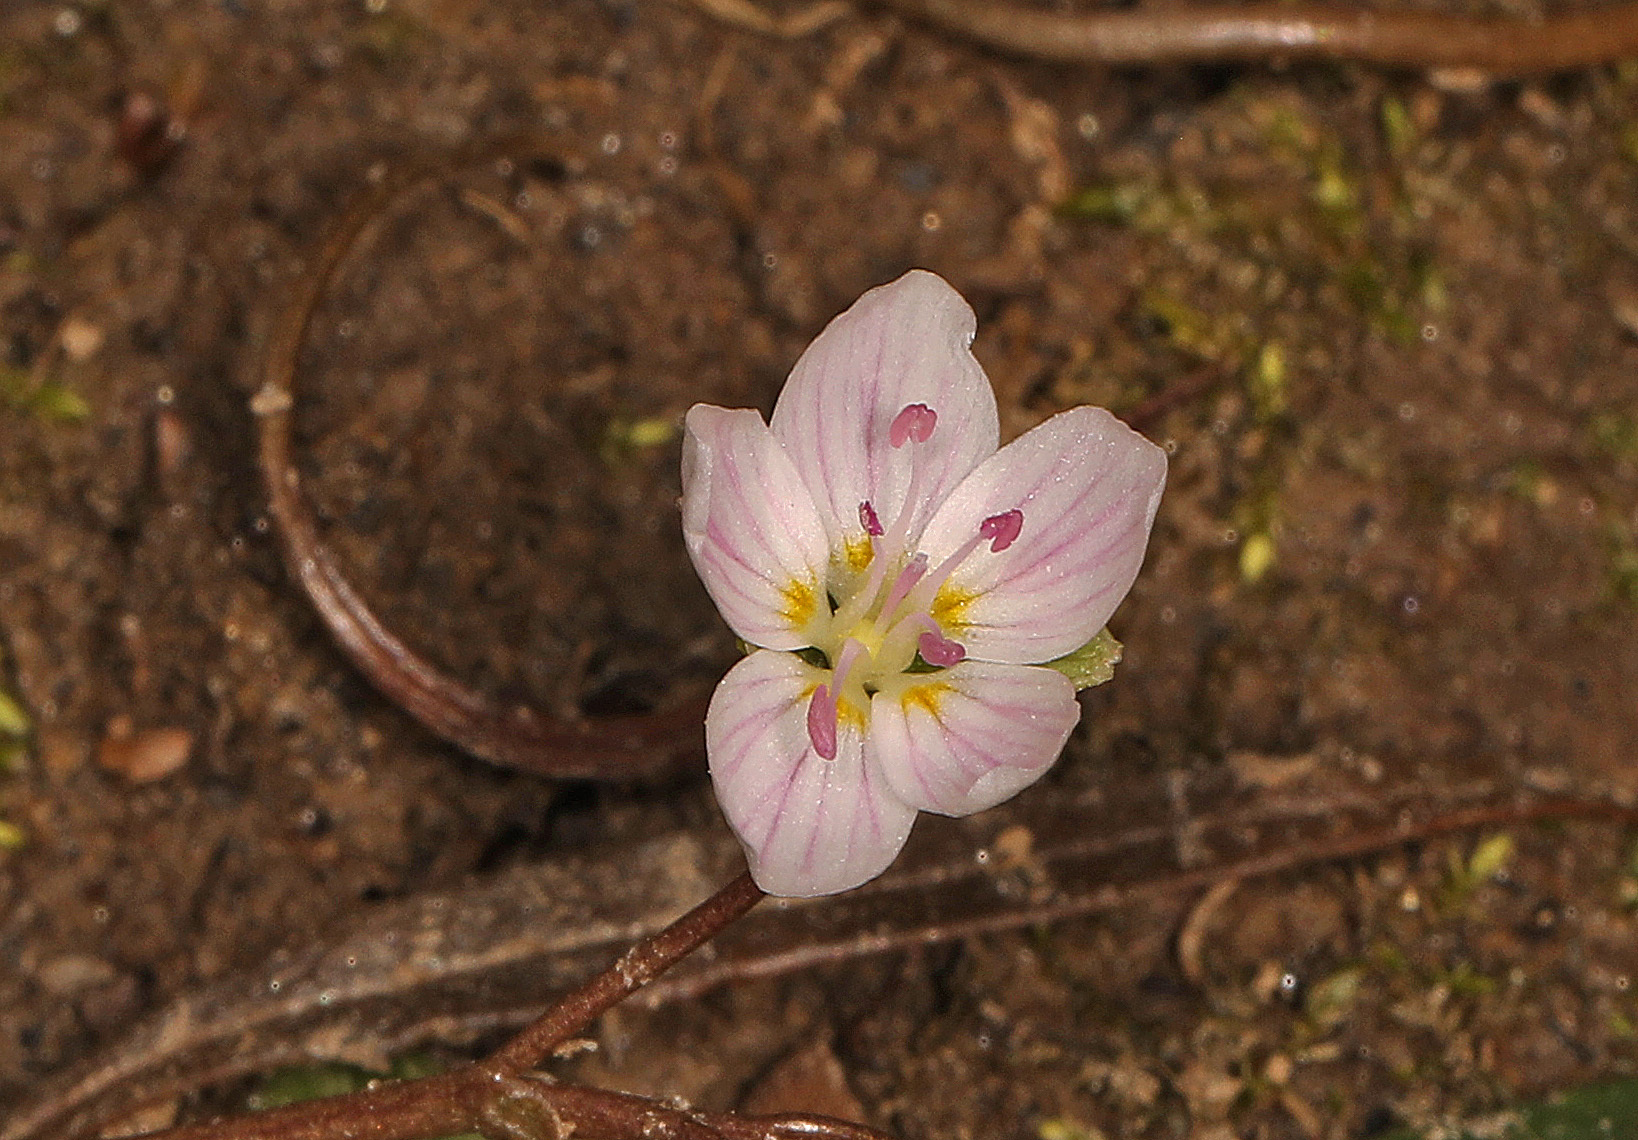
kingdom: Plantae
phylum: Tracheophyta
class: Magnoliopsida
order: Caryophyllales
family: Montiaceae
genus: Claytonia
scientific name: Claytonia virginica
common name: Virginia springbeauty
